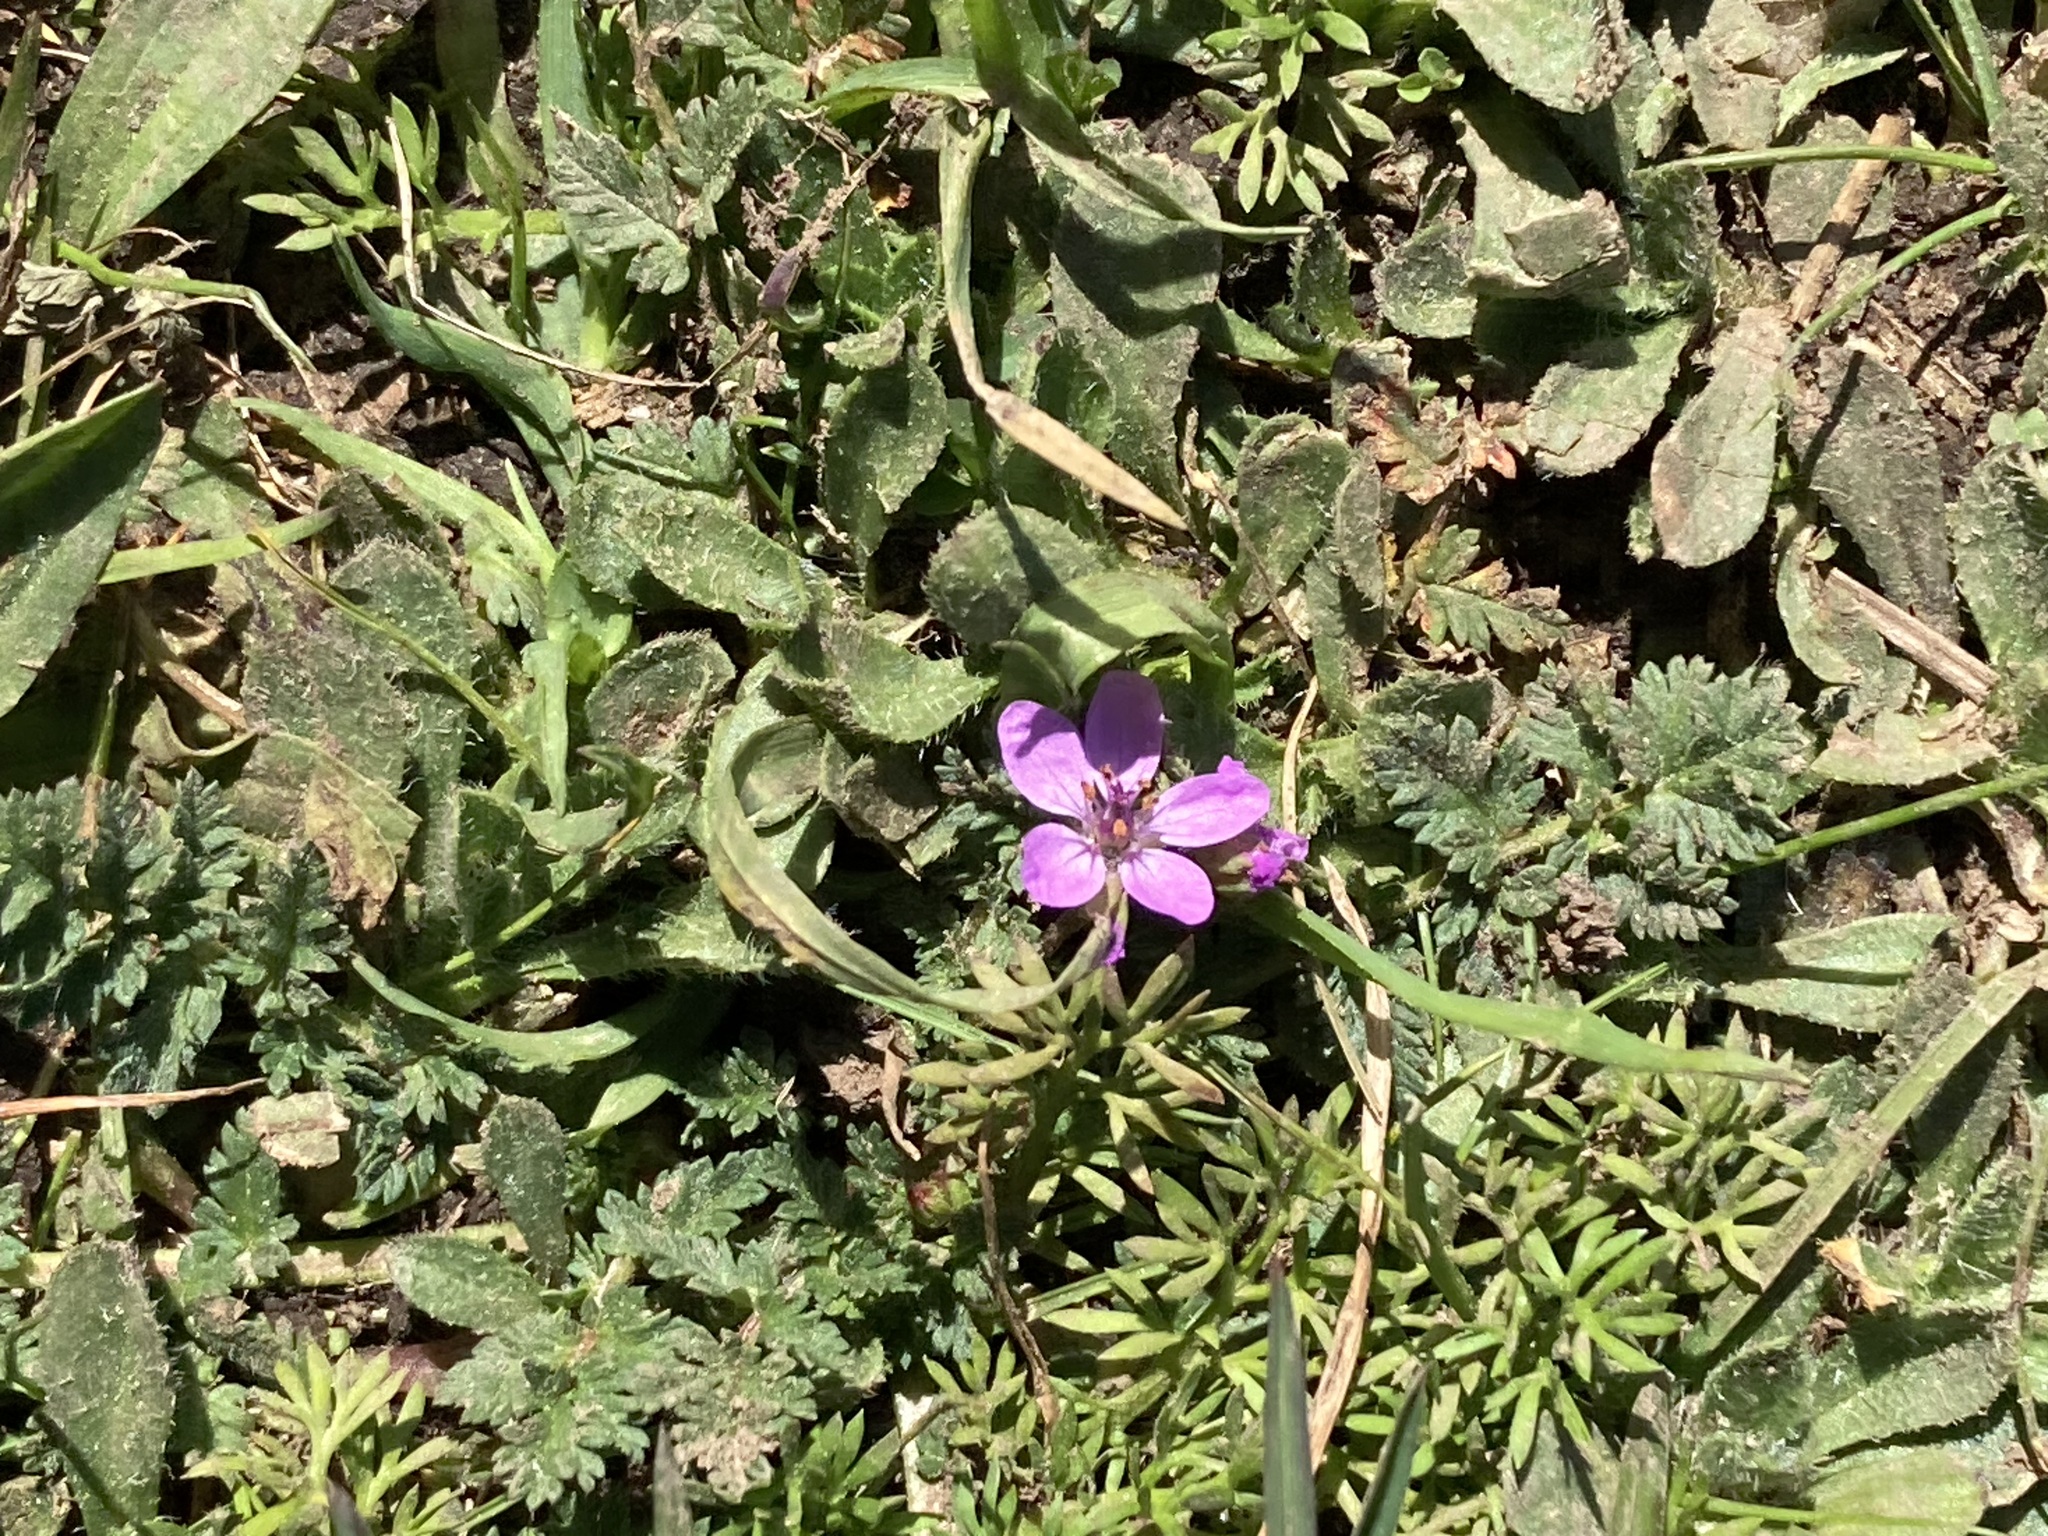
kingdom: Plantae
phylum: Tracheophyta
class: Magnoliopsida
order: Geraniales
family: Geraniaceae
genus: Erodium
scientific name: Erodium cicutarium
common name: Common stork's-bill
